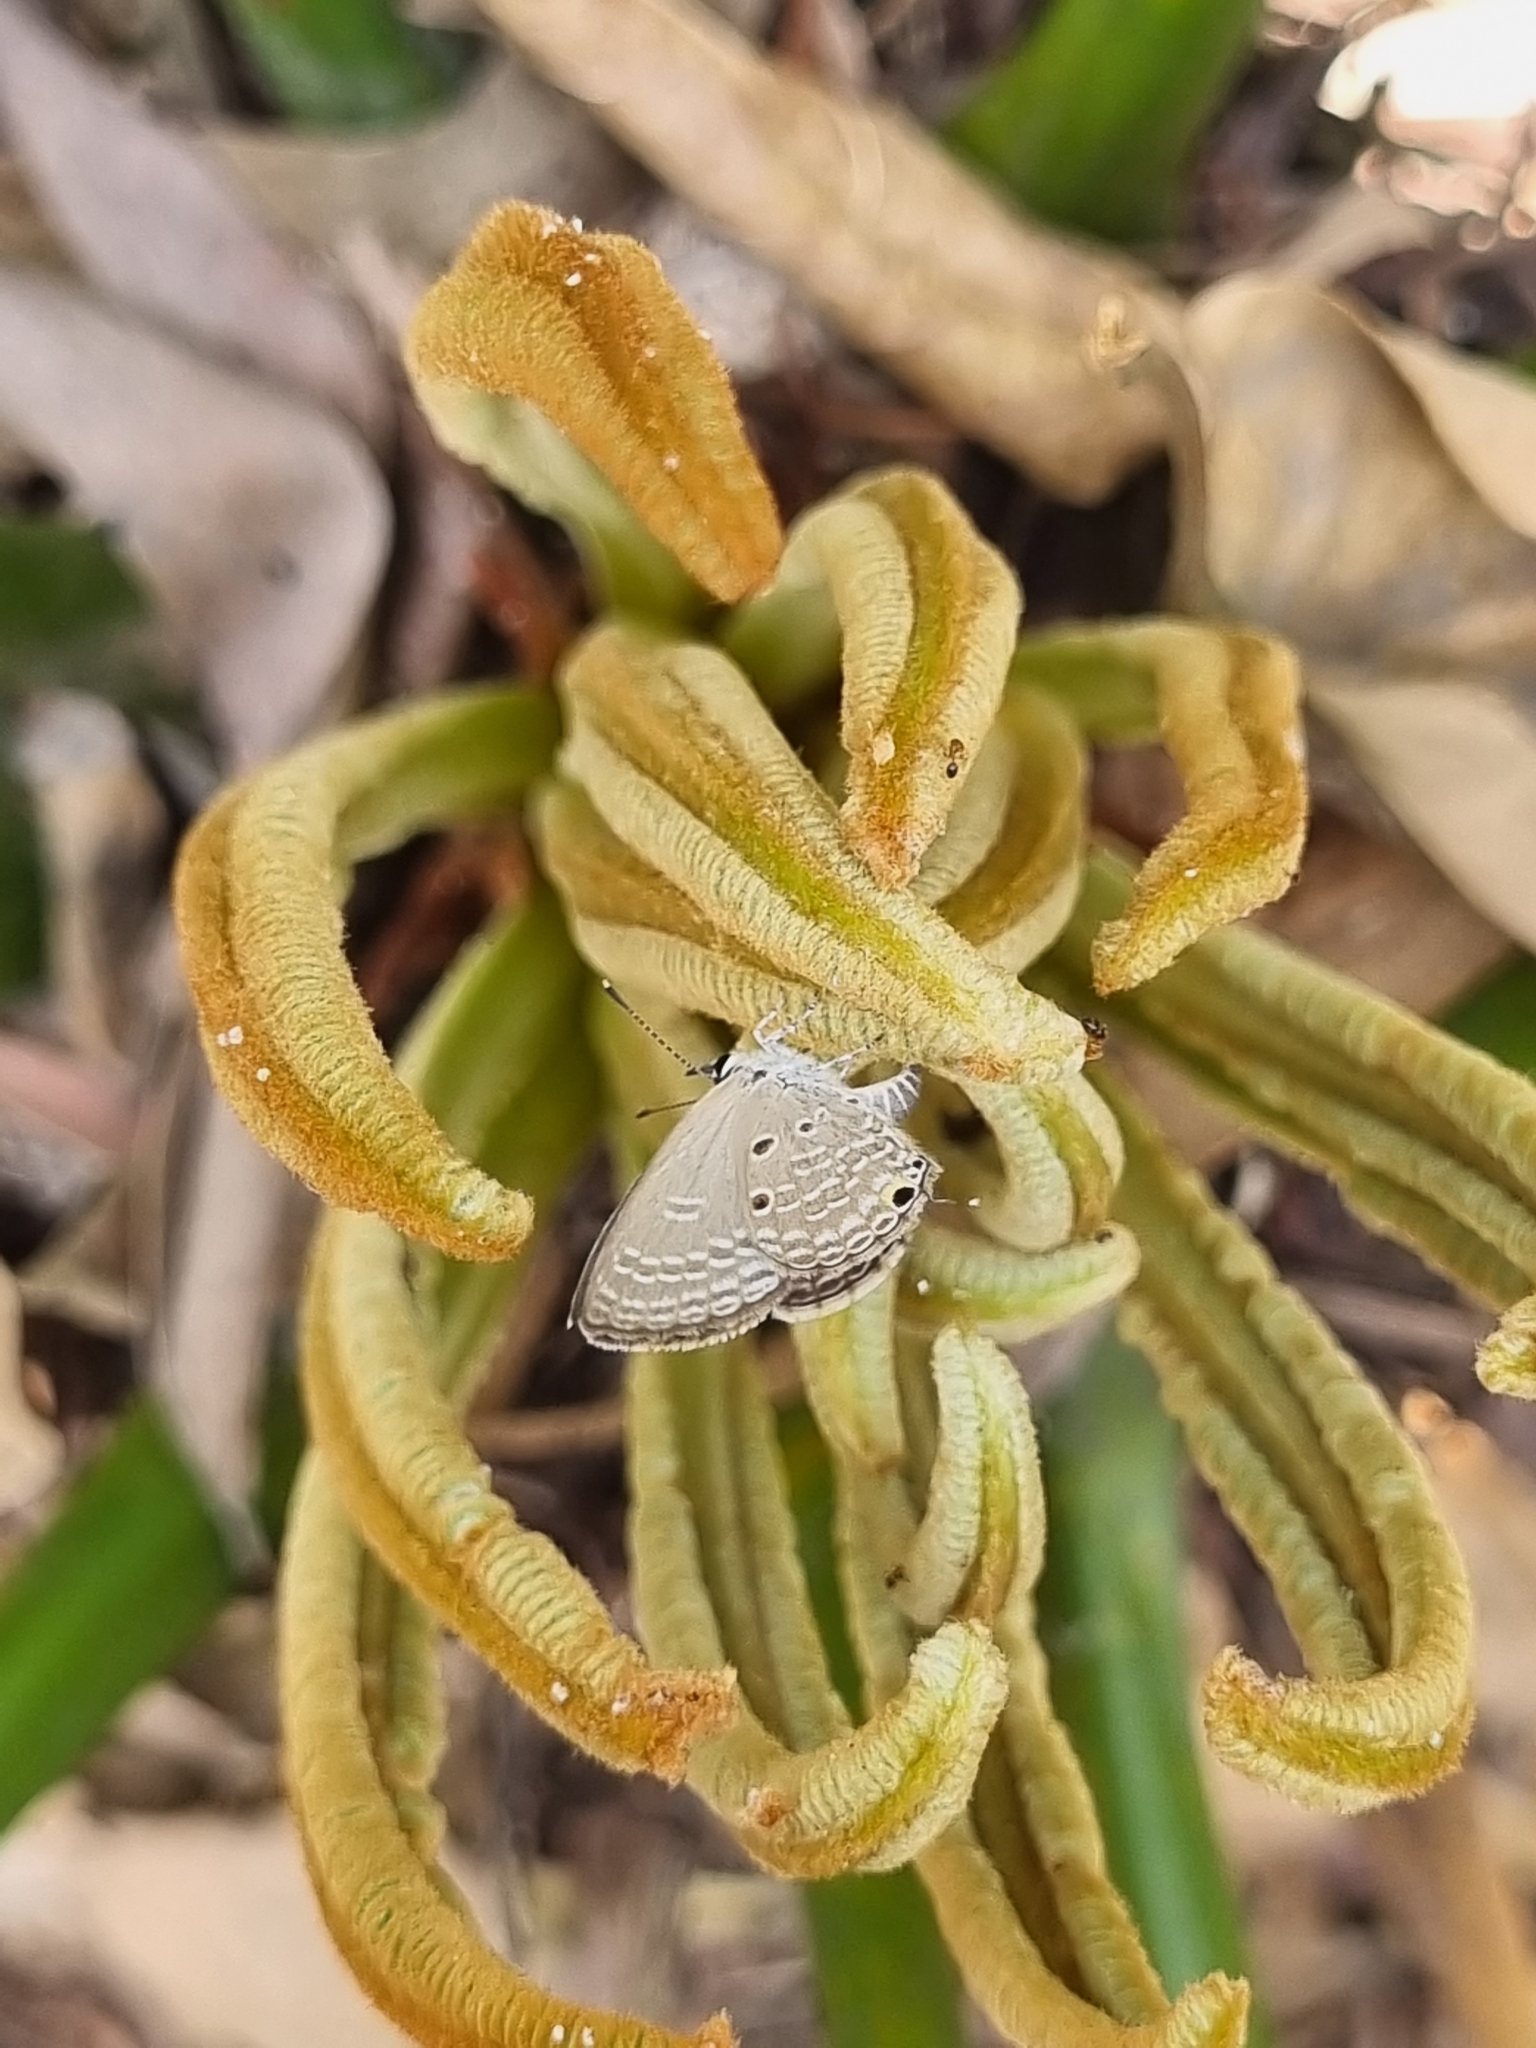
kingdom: Animalia
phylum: Arthropoda
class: Insecta
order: Lepidoptera
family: Lycaenidae
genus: Luthrodes
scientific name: Luthrodes pandava
